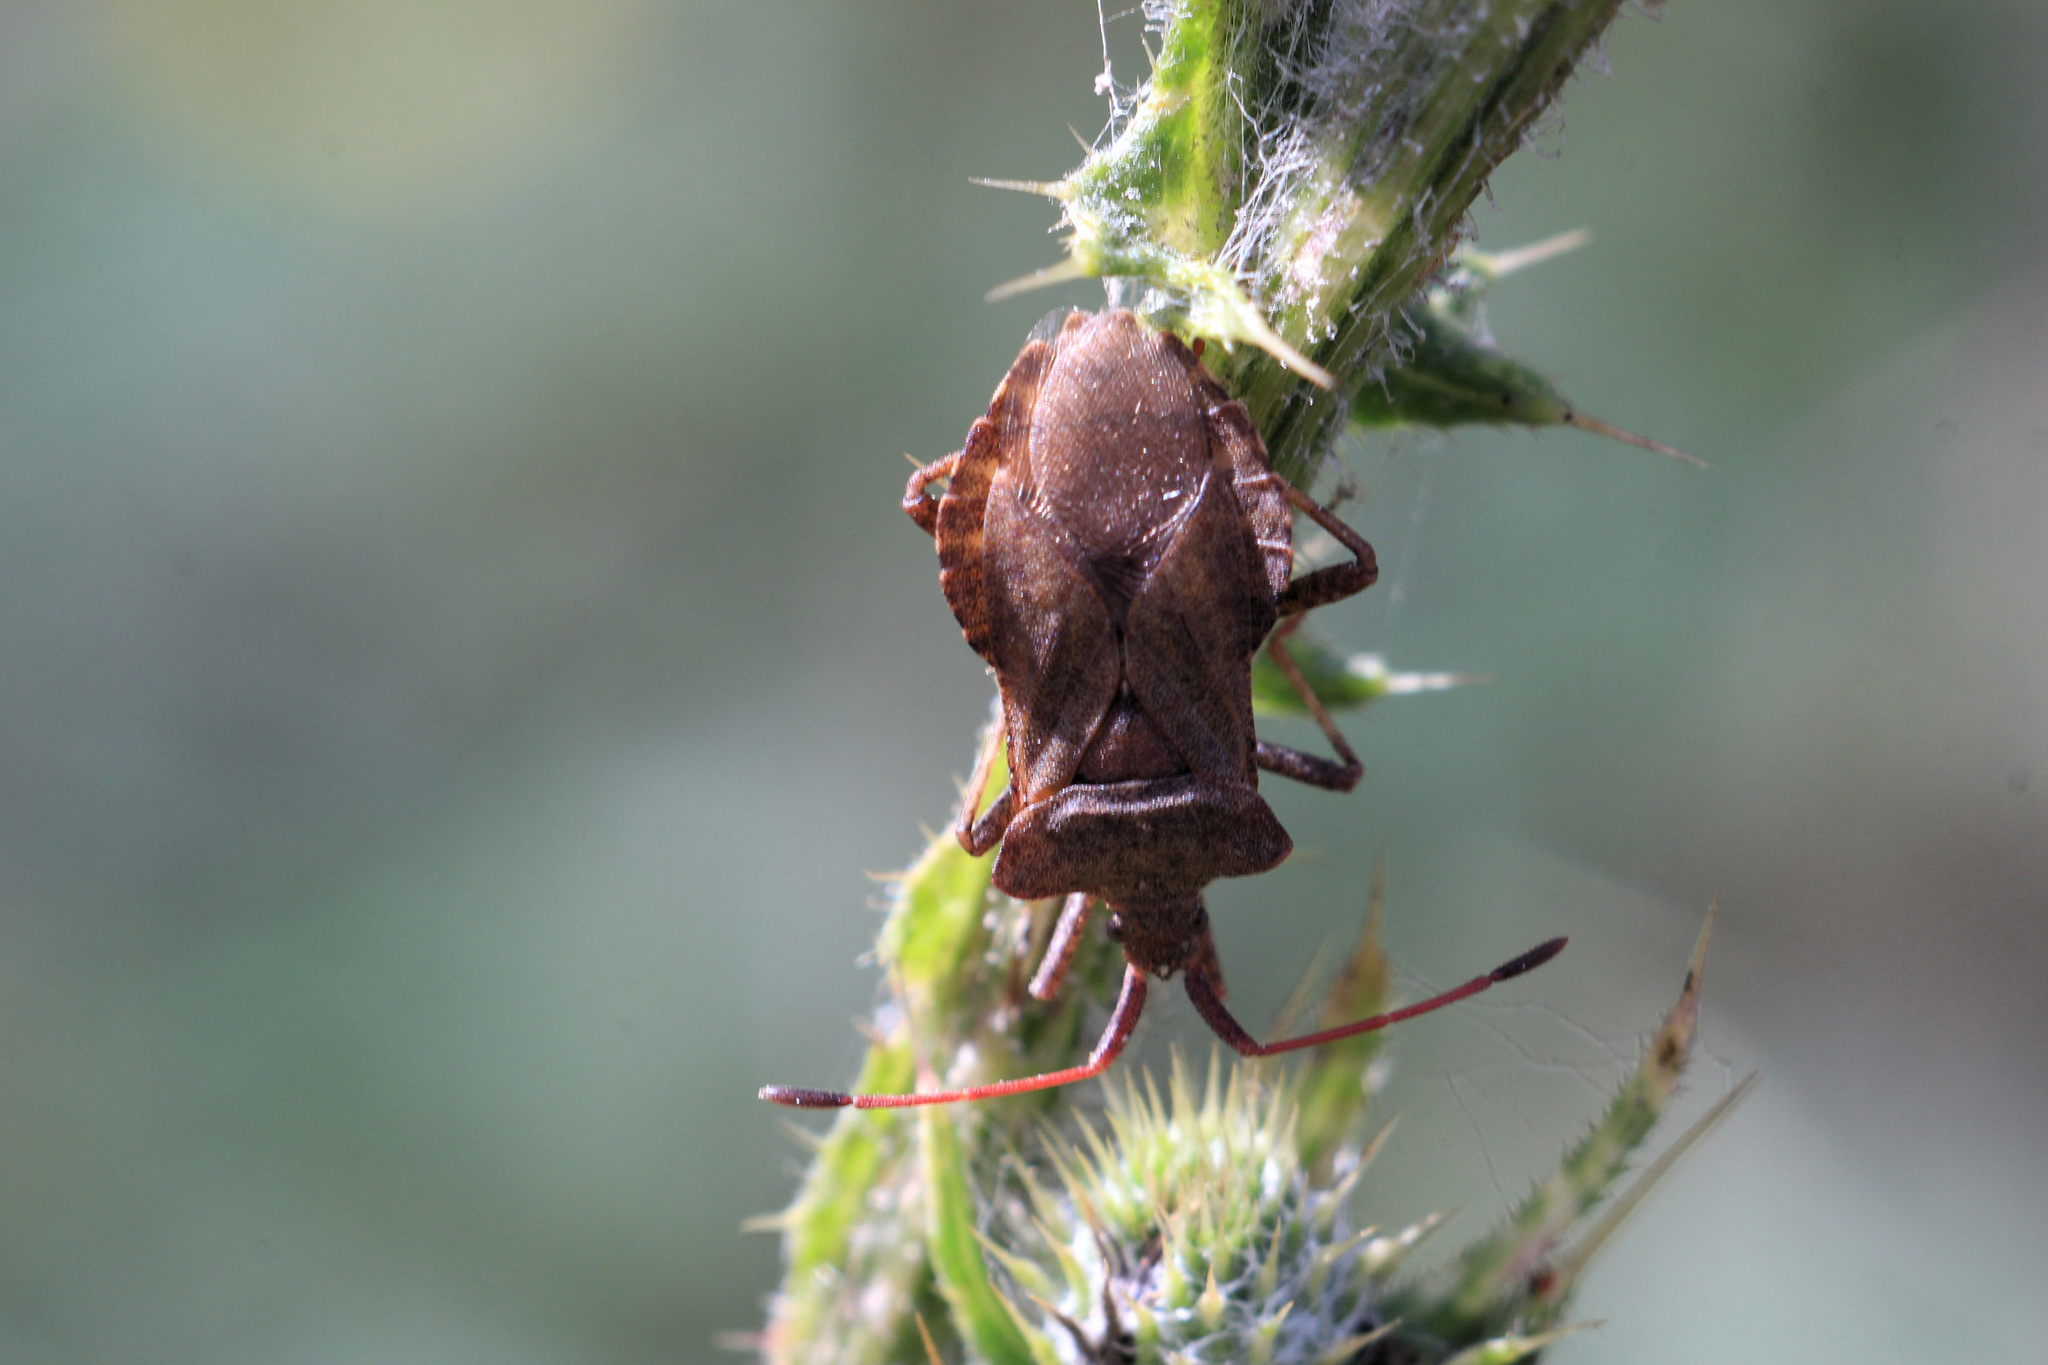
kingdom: Animalia
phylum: Arthropoda
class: Insecta
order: Hemiptera
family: Coreidae
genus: Coreus
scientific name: Coreus marginatus
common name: Dock bug
